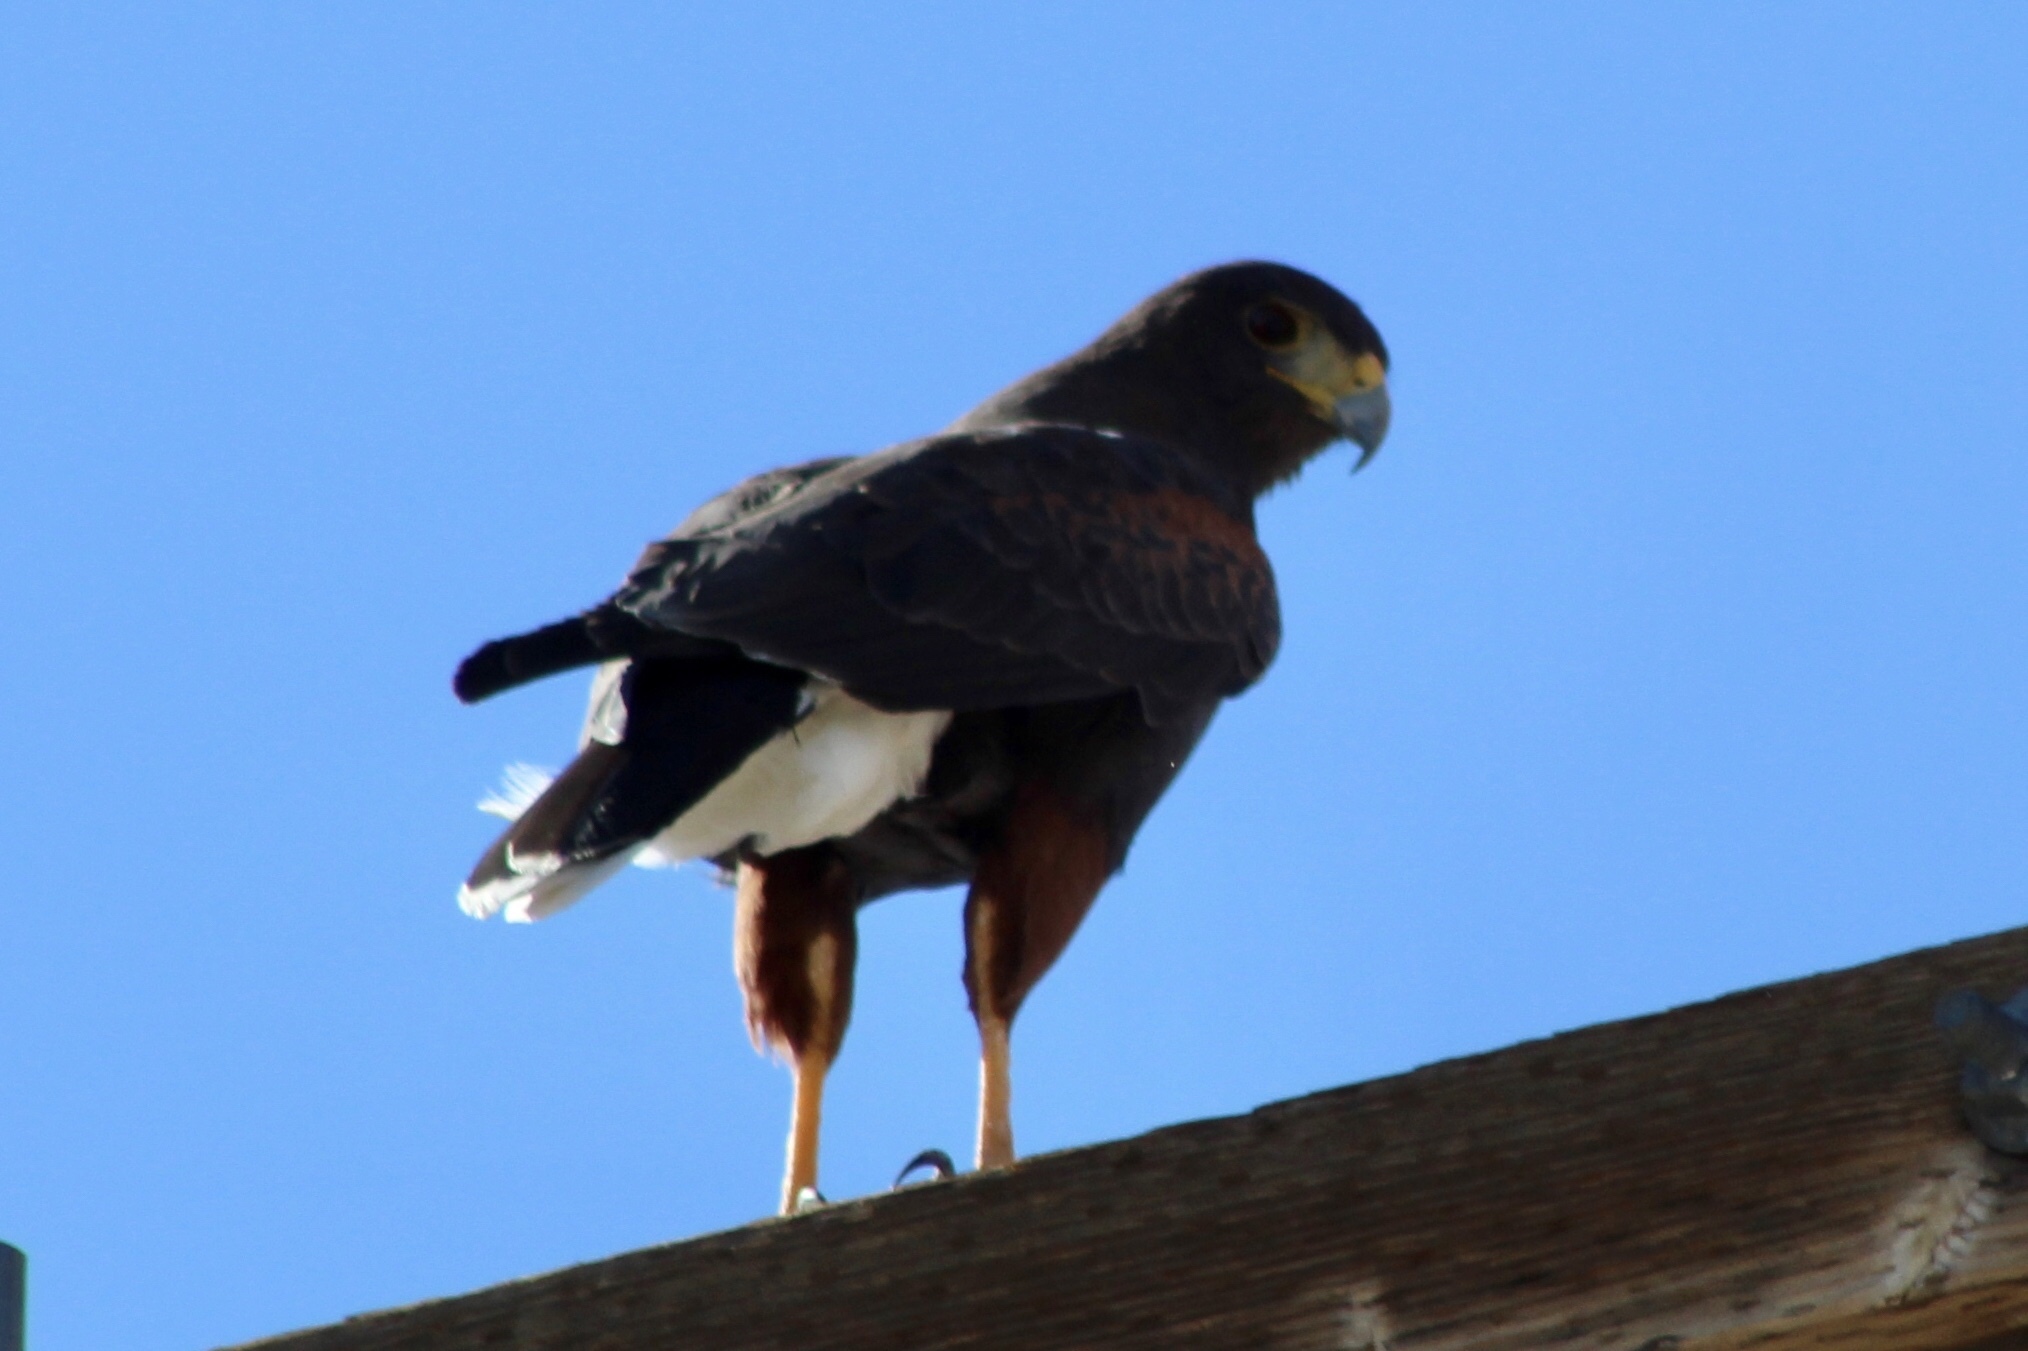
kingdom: Animalia
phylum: Chordata
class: Aves
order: Accipitriformes
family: Accipitridae
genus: Parabuteo
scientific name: Parabuteo unicinctus
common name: Harris's hawk
